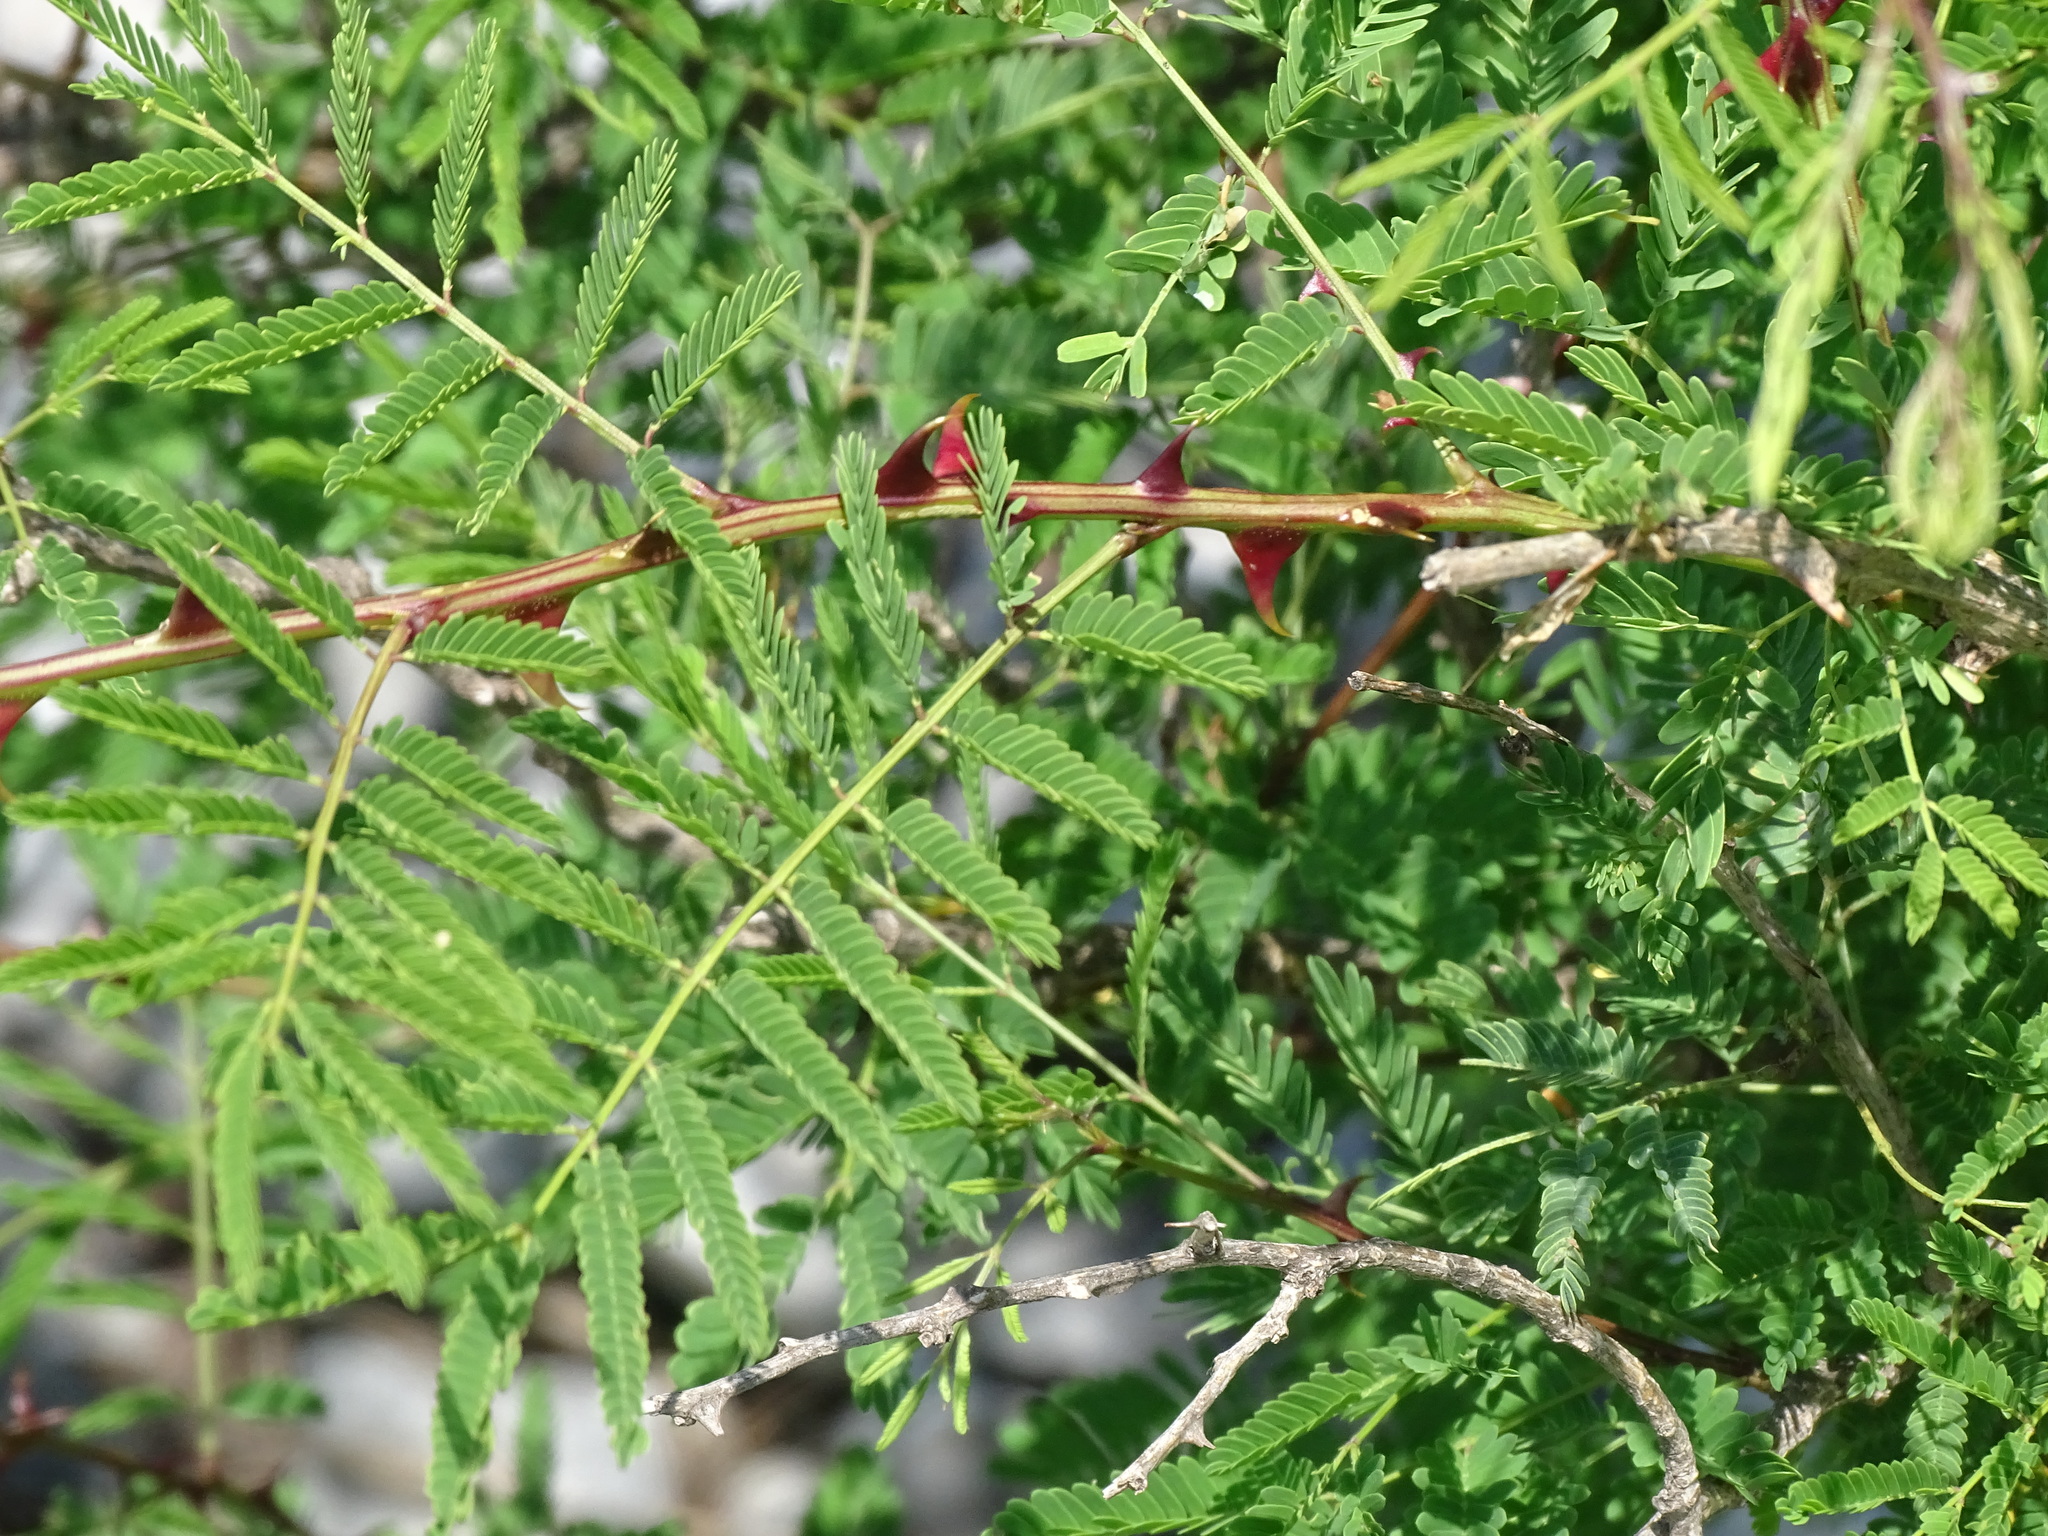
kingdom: Plantae
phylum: Tracheophyta
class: Magnoliopsida
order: Fabales
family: Fabaceae
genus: Mimosa
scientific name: Mimosa acantholoba
